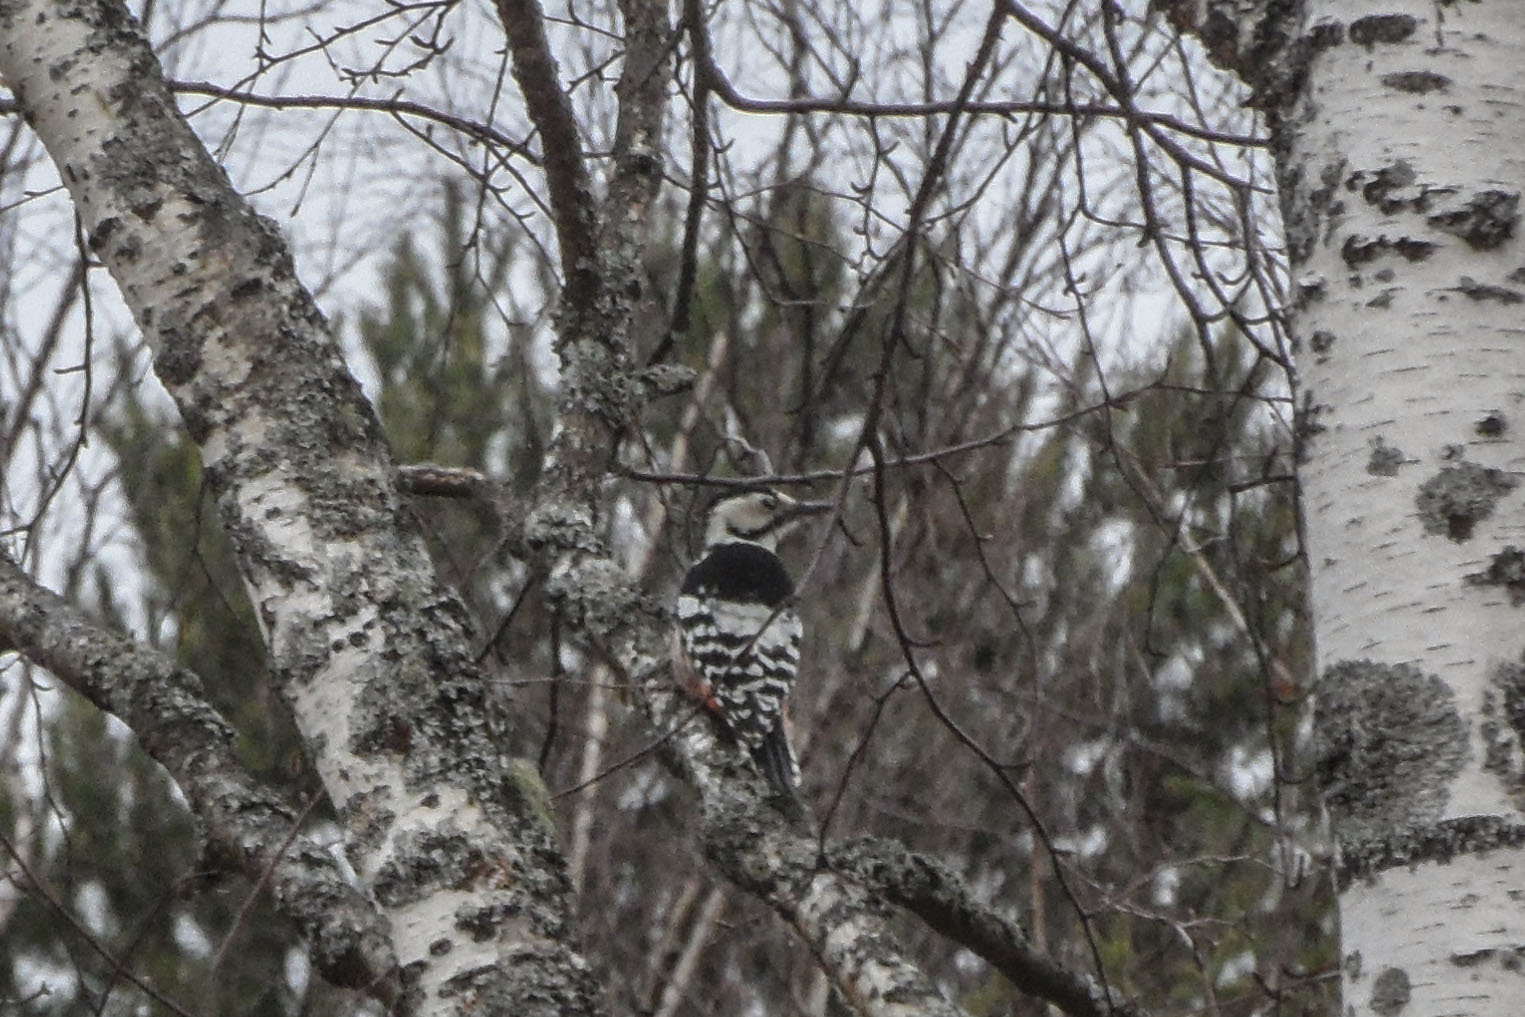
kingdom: Animalia
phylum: Chordata
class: Aves
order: Piciformes
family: Picidae
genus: Dendrocopos
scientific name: Dendrocopos leucotos
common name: White-backed woodpecker
